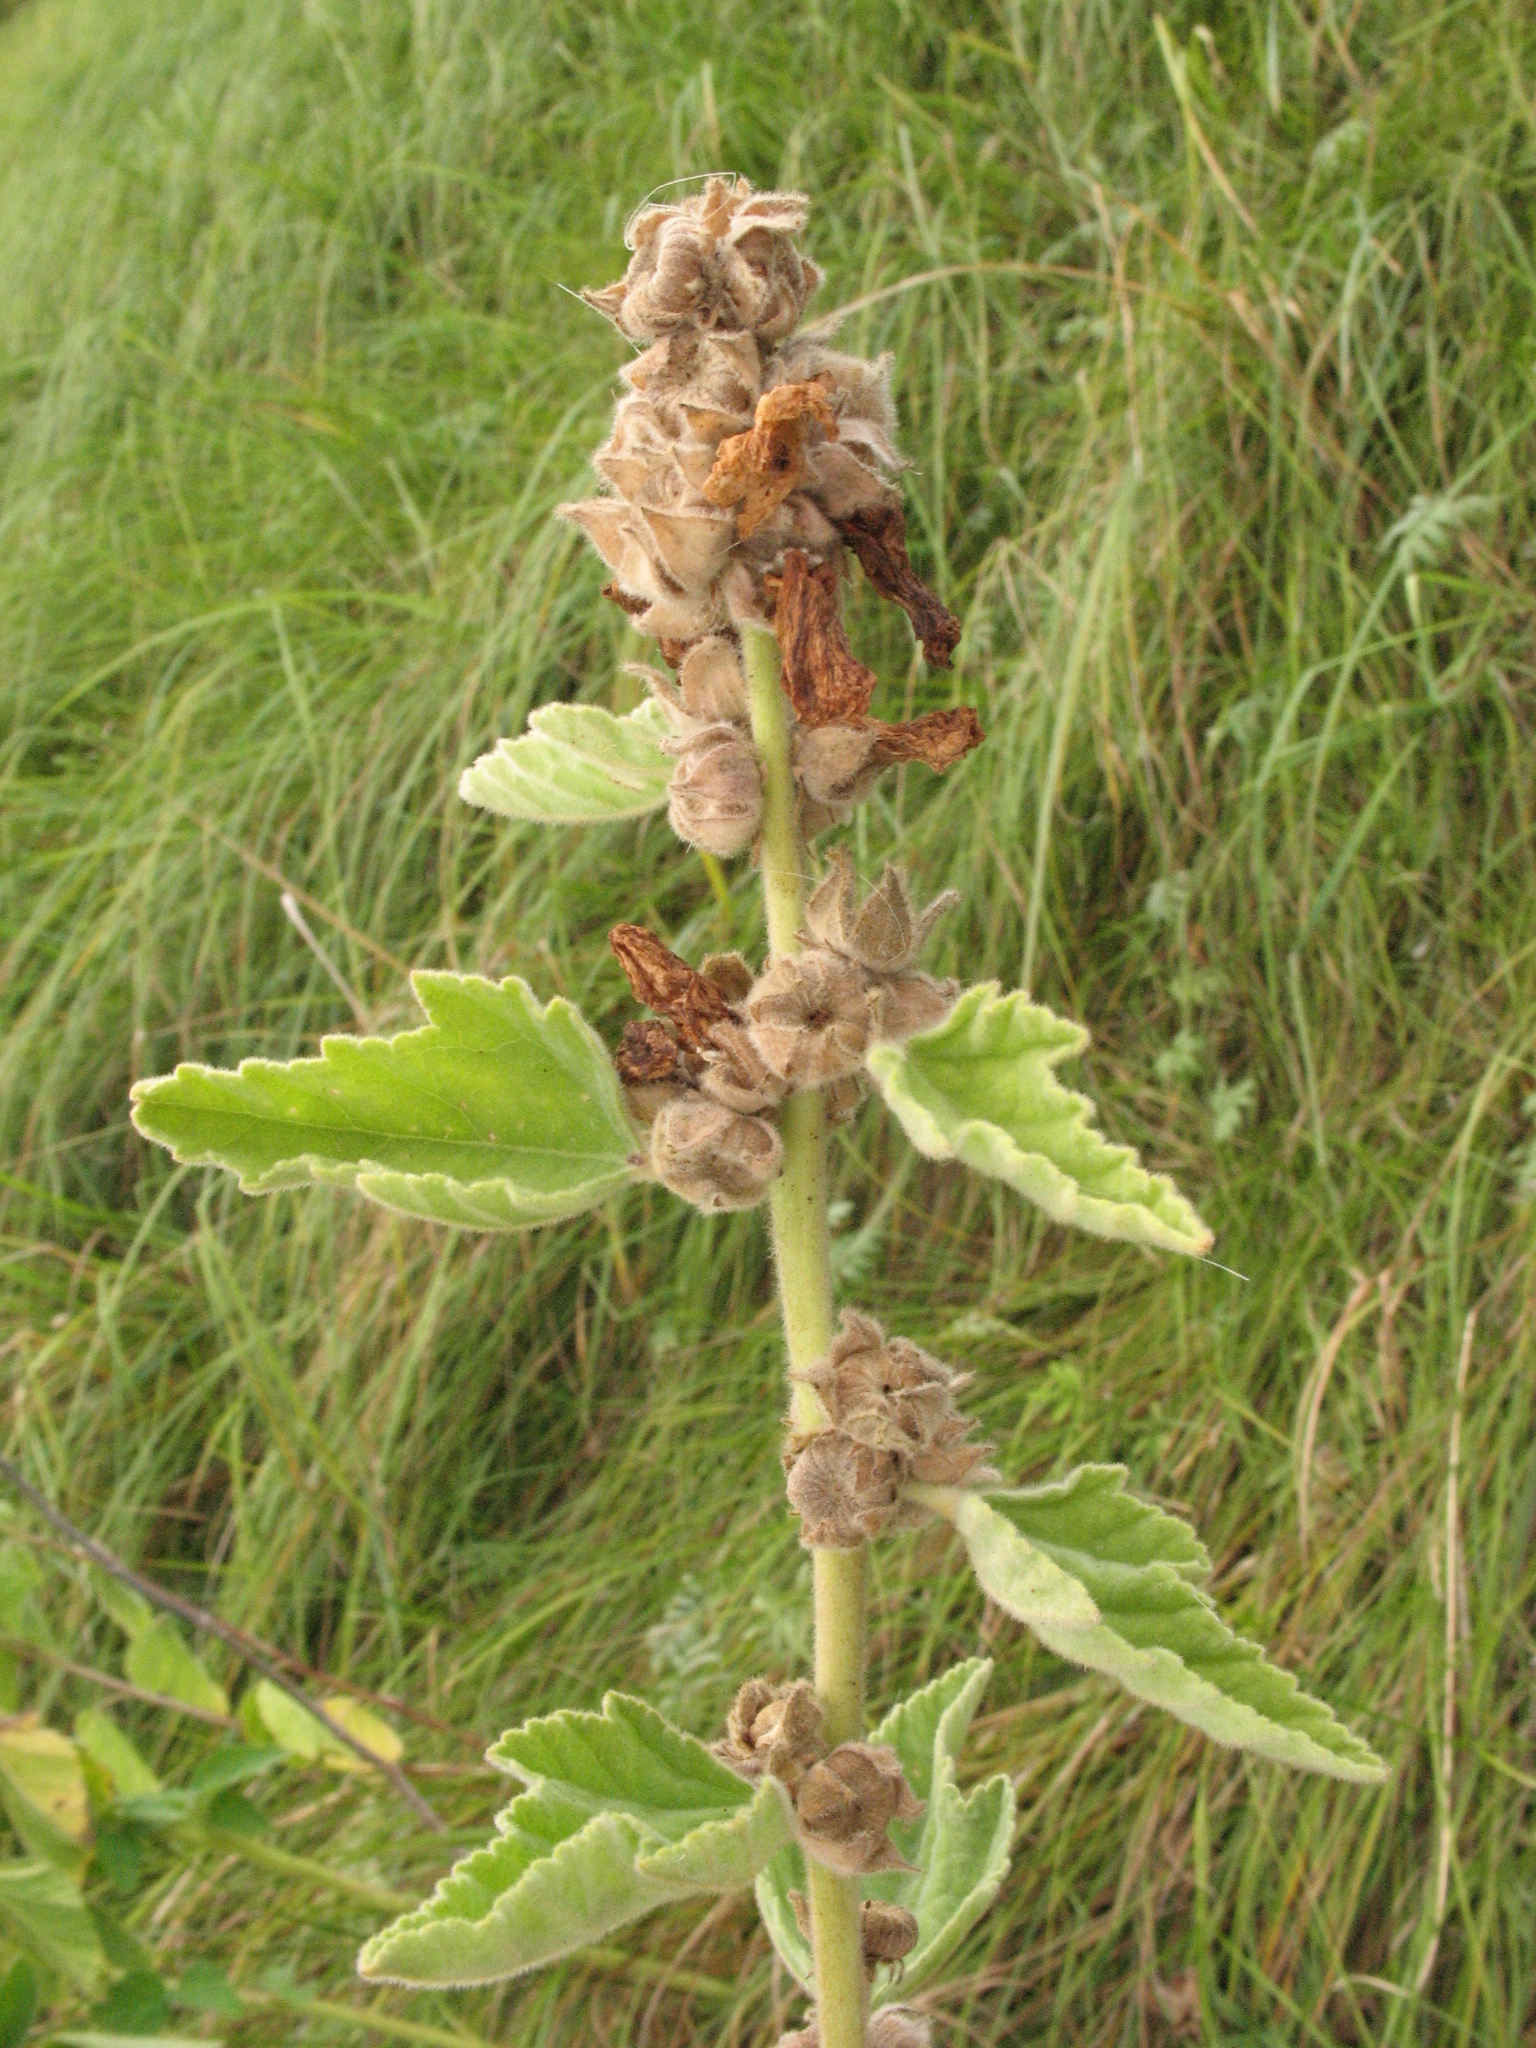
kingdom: Plantae
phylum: Tracheophyta
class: Magnoliopsida
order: Malvales
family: Malvaceae
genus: Althaea
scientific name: Althaea officinalis
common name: Marsh-mallow
